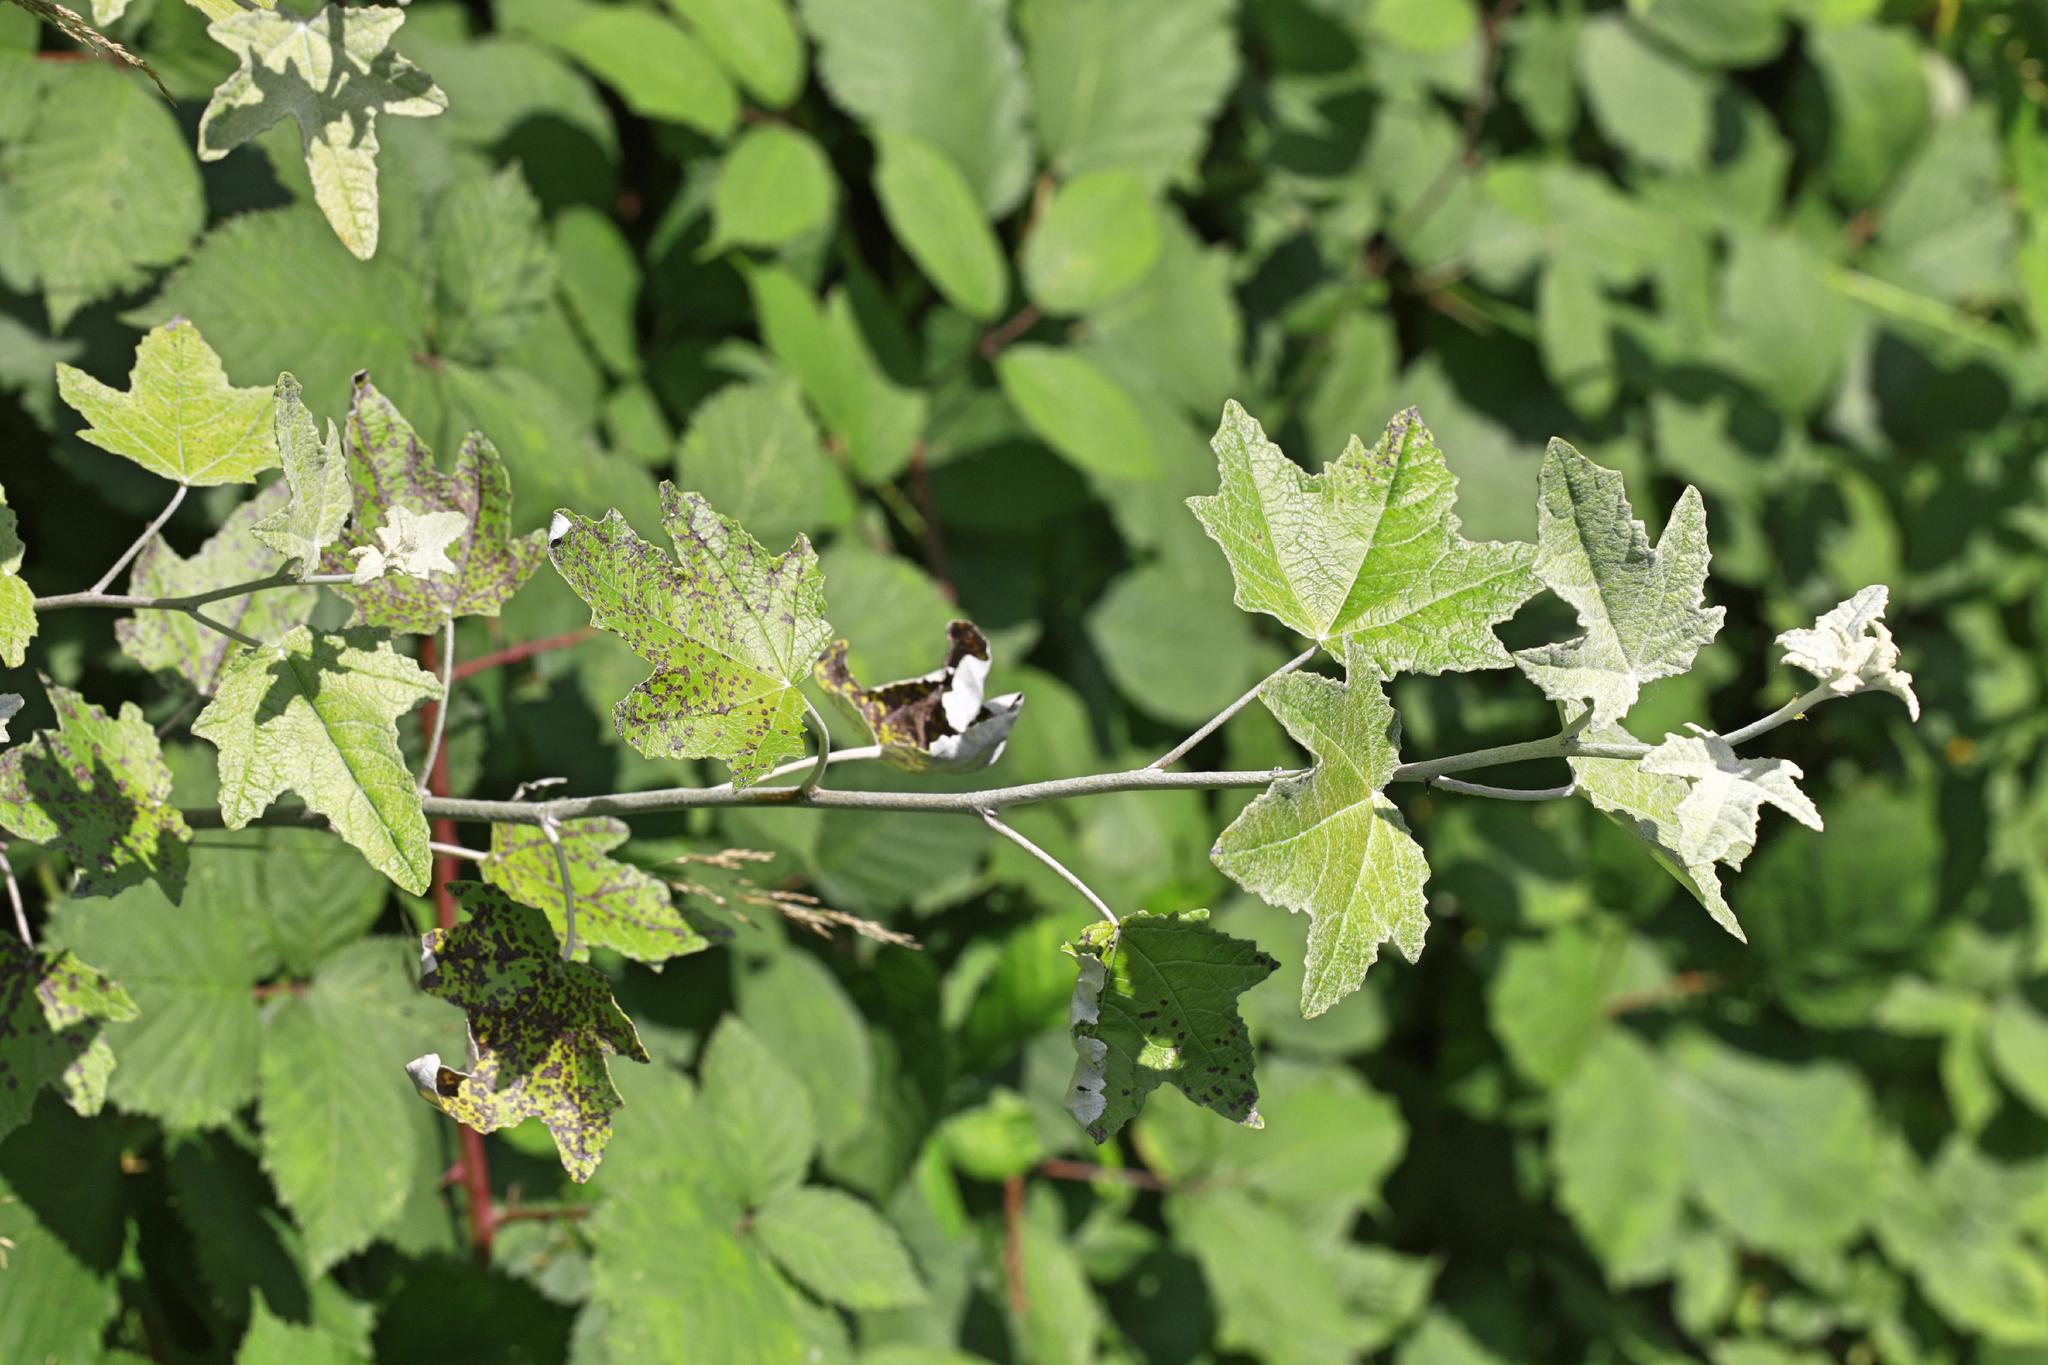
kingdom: Plantae
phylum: Tracheophyta
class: Magnoliopsida
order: Malpighiales
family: Salicaceae
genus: Populus
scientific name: Populus alba
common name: White poplar
